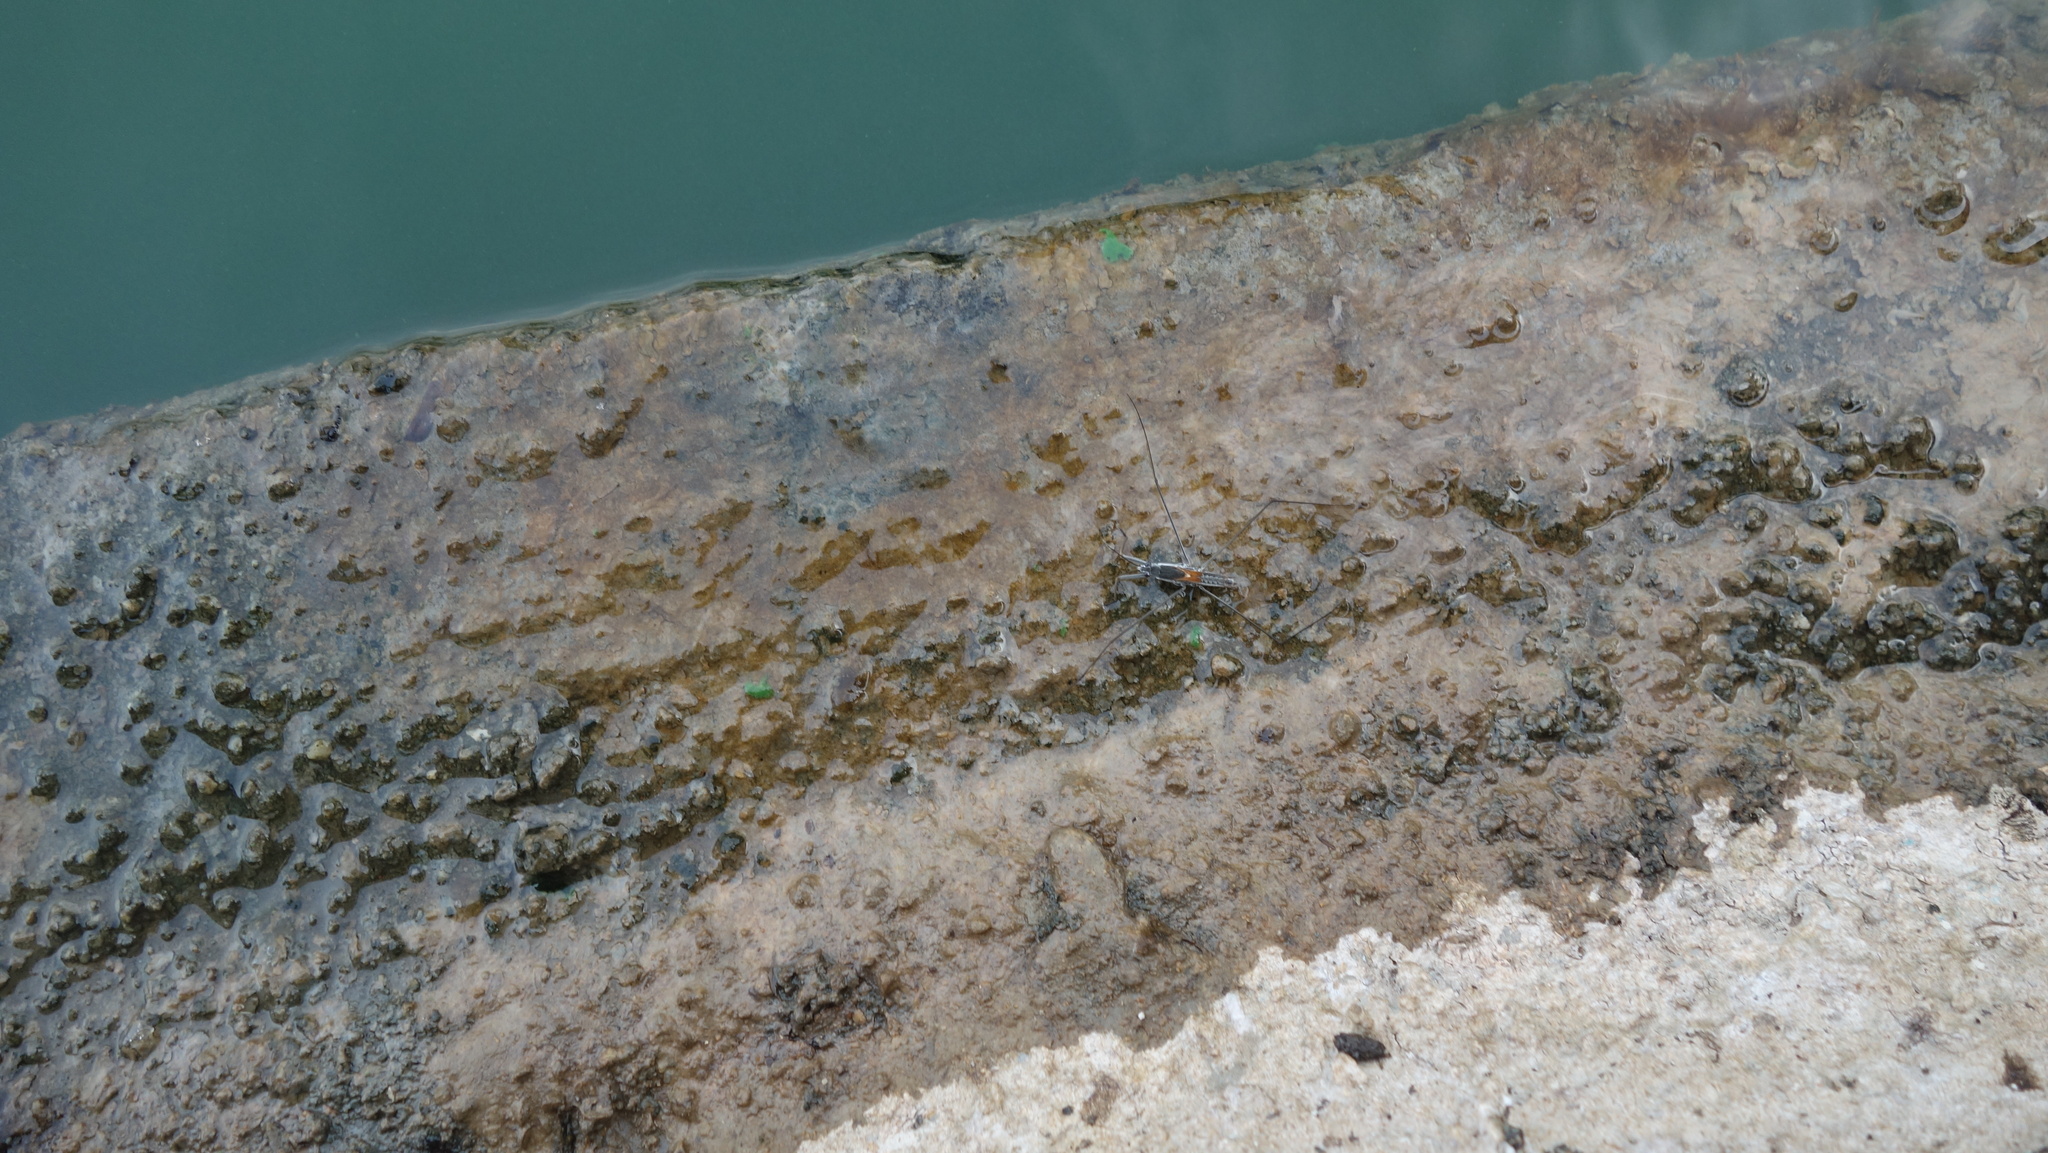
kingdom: Animalia
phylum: Arthropoda
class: Insecta
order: Hemiptera
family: Gerridae
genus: Aquarius
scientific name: Aquarius adelaidis
